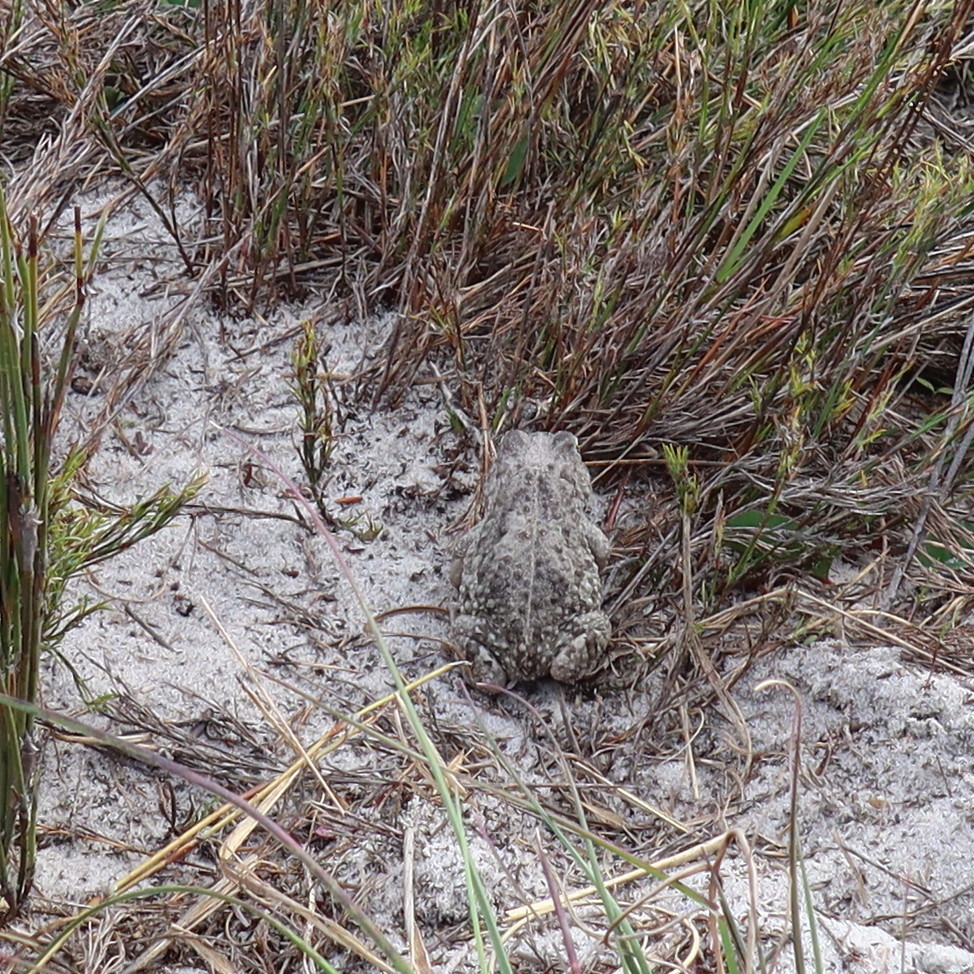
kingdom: Animalia
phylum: Chordata
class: Amphibia
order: Anura
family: Bufonidae
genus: Vandijkophrynus
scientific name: Vandijkophrynus angusticeps
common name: Sand toad
